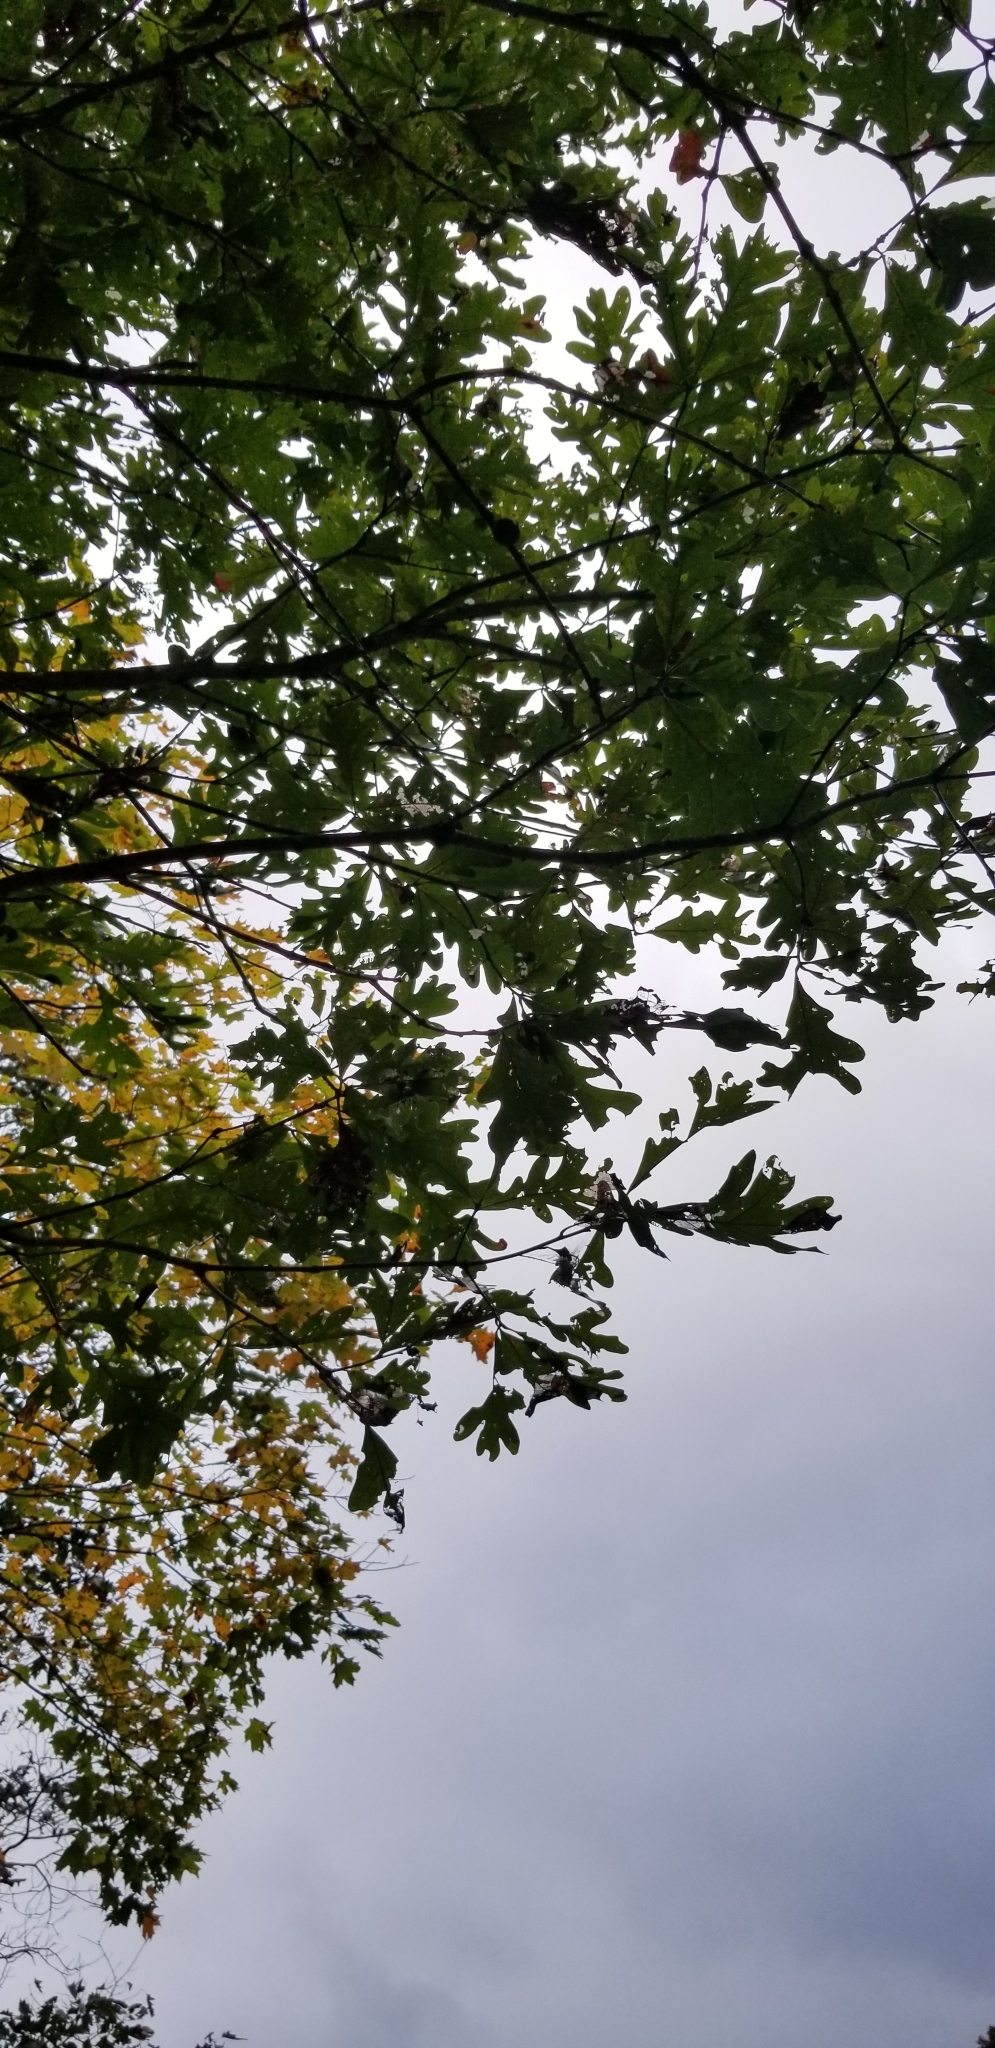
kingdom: Plantae
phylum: Tracheophyta
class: Magnoliopsida
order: Fagales
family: Fagaceae
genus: Quercus
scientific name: Quercus alba
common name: White oak
